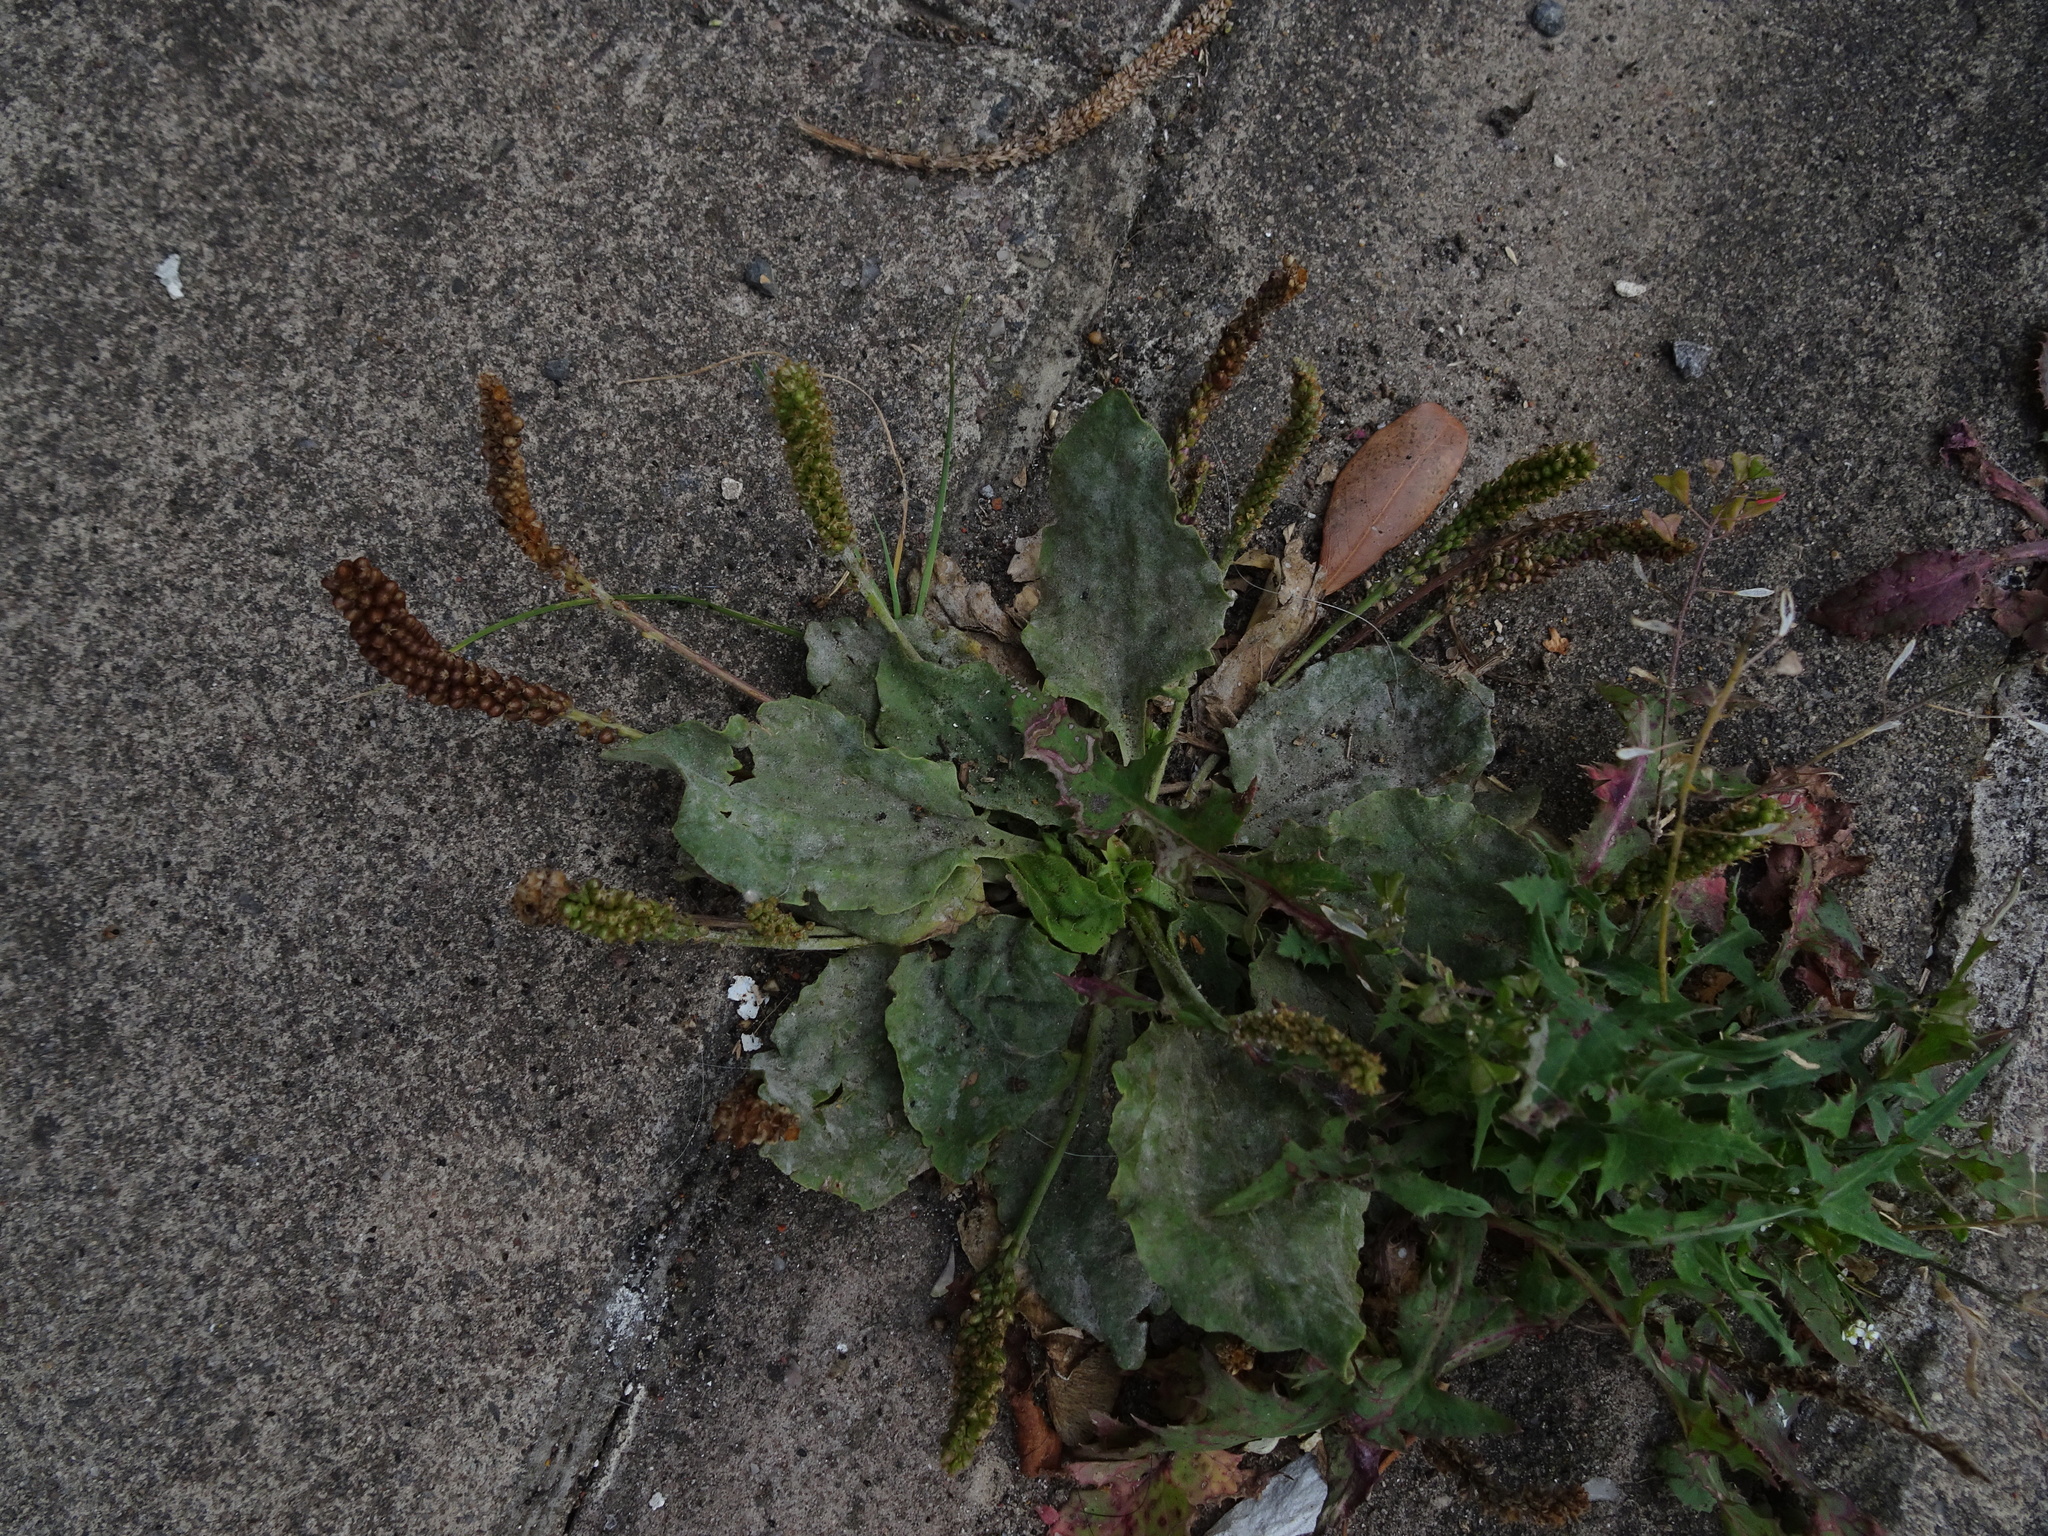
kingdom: Plantae
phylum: Tracheophyta
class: Magnoliopsida
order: Lamiales
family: Plantaginaceae
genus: Plantago
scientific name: Plantago major
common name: Common plantain
